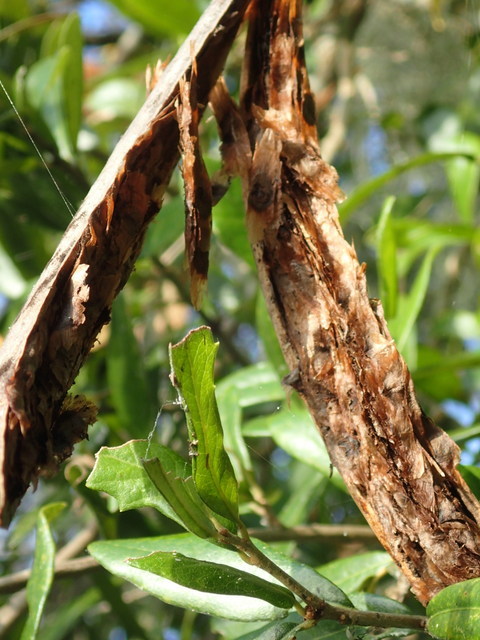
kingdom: Plantae
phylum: Tracheophyta
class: Magnoliopsida
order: Lamiales
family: Bignoniaceae
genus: Campsis
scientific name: Campsis radicans
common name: Trumpet-creeper
